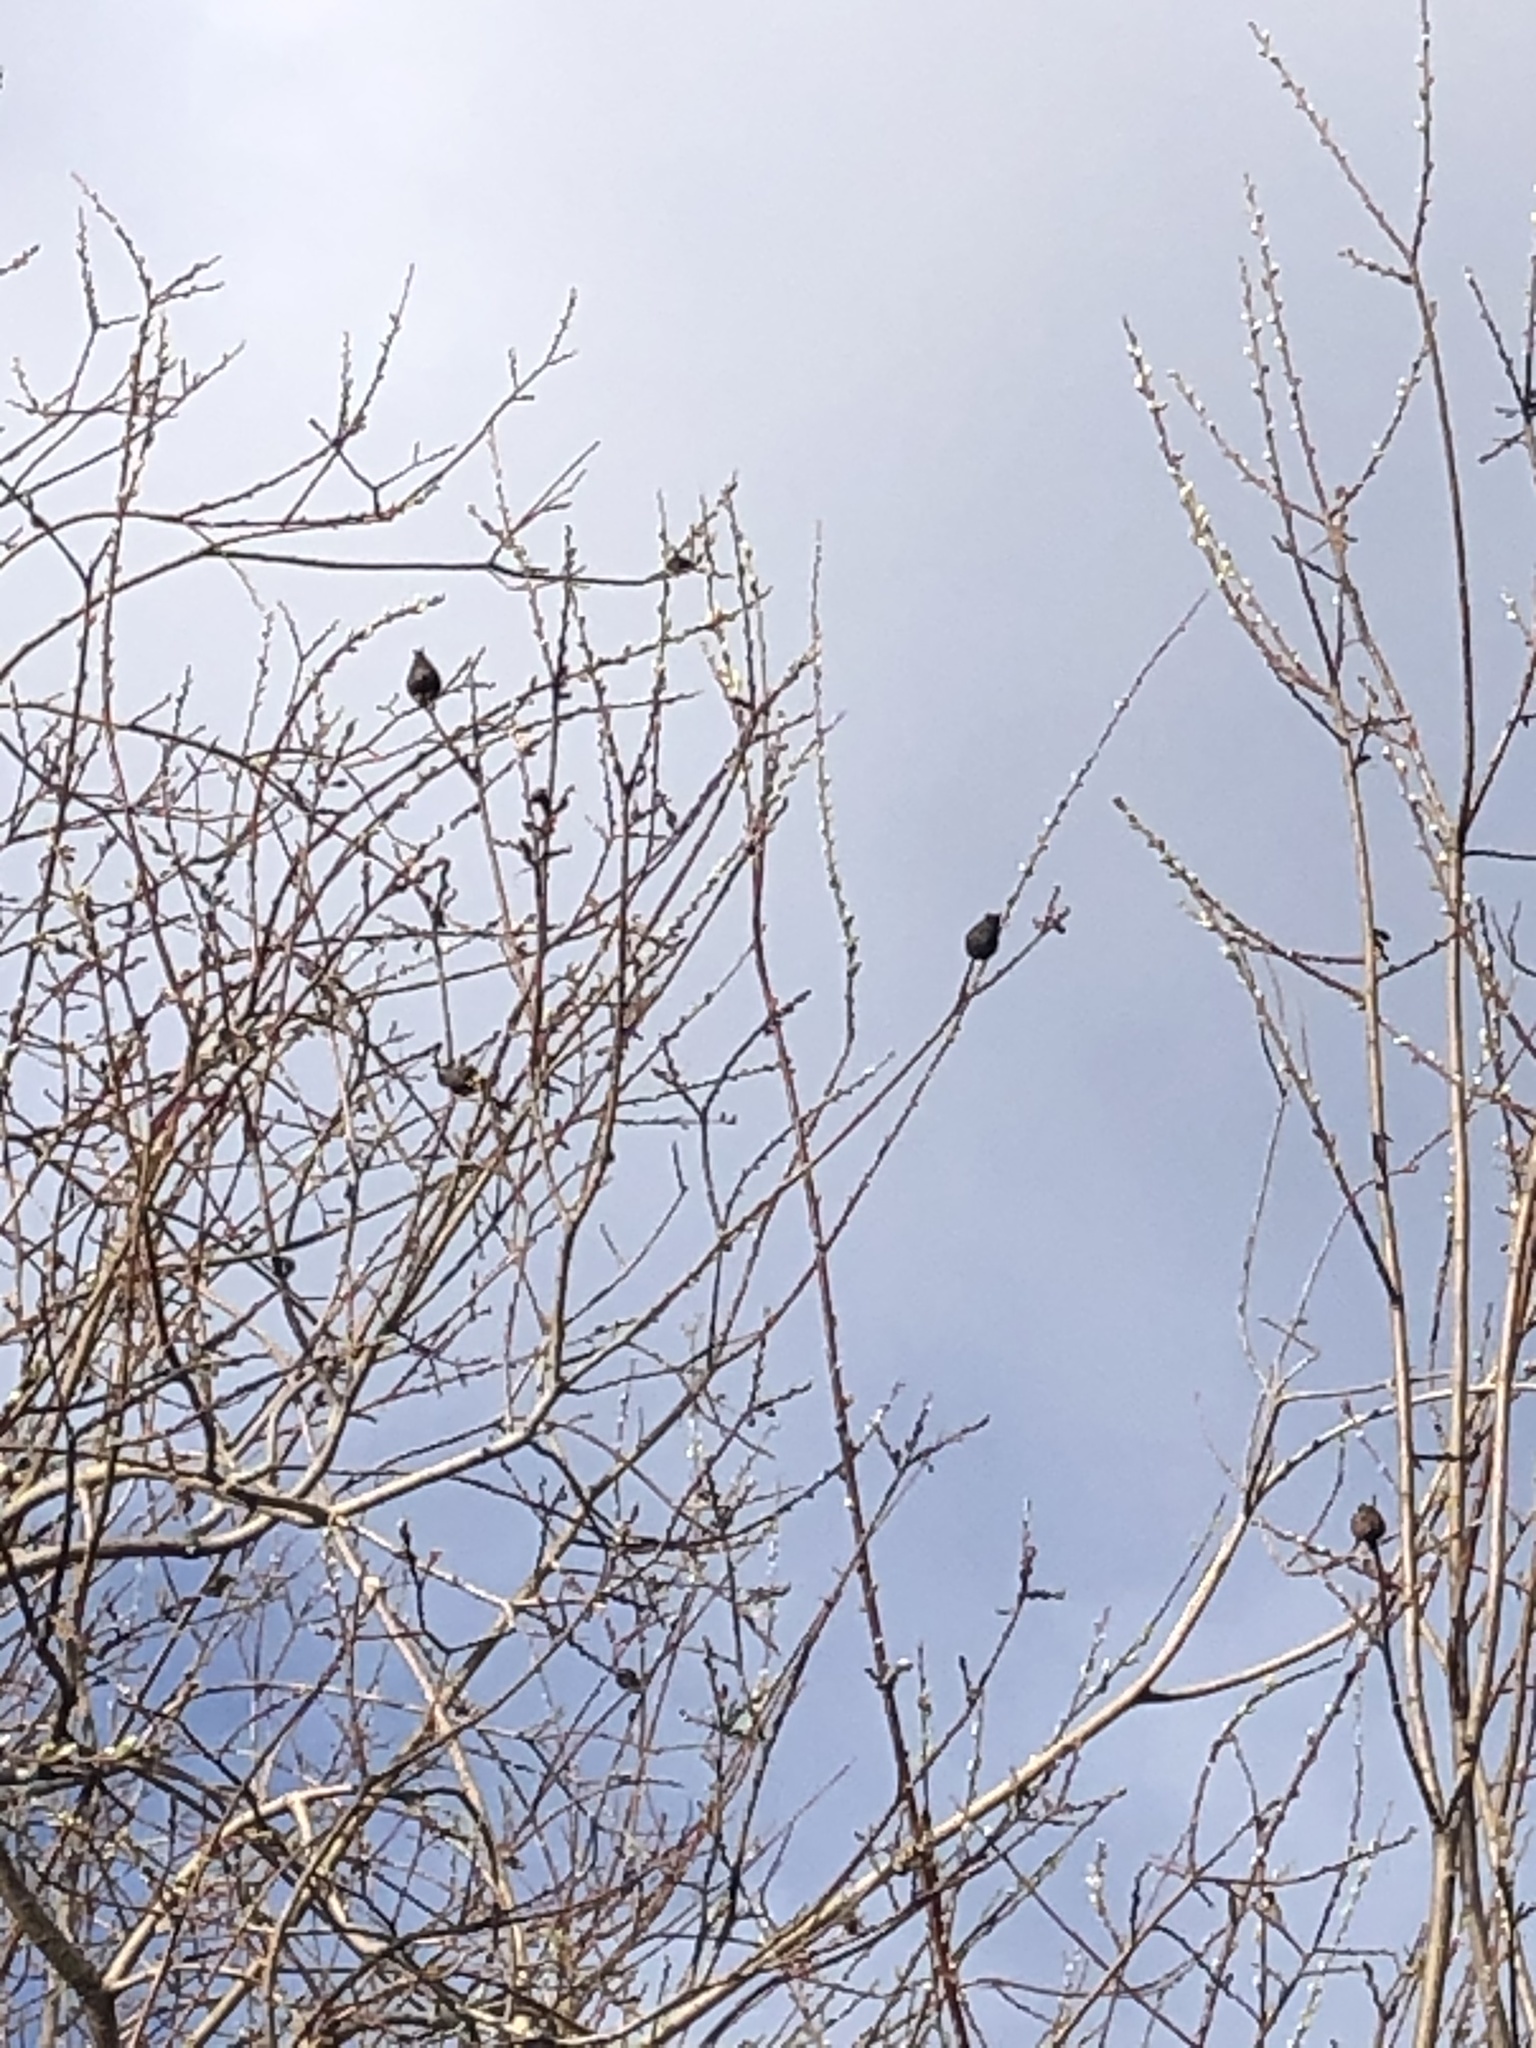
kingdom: Animalia
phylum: Arthropoda
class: Insecta
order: Diptera
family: Cecidomyiidae
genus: Rabdophaga
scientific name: Rabdophaga strobiloides
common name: Willow pinecone gall midge
